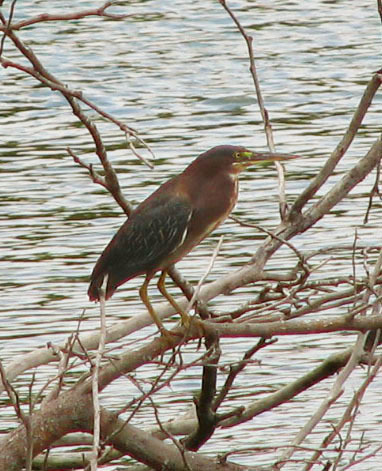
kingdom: Animalia
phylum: Chordata
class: Aves
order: Pelecaniformes
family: Ardeidae
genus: Butorides
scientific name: Butorides virescens
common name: Green heron
